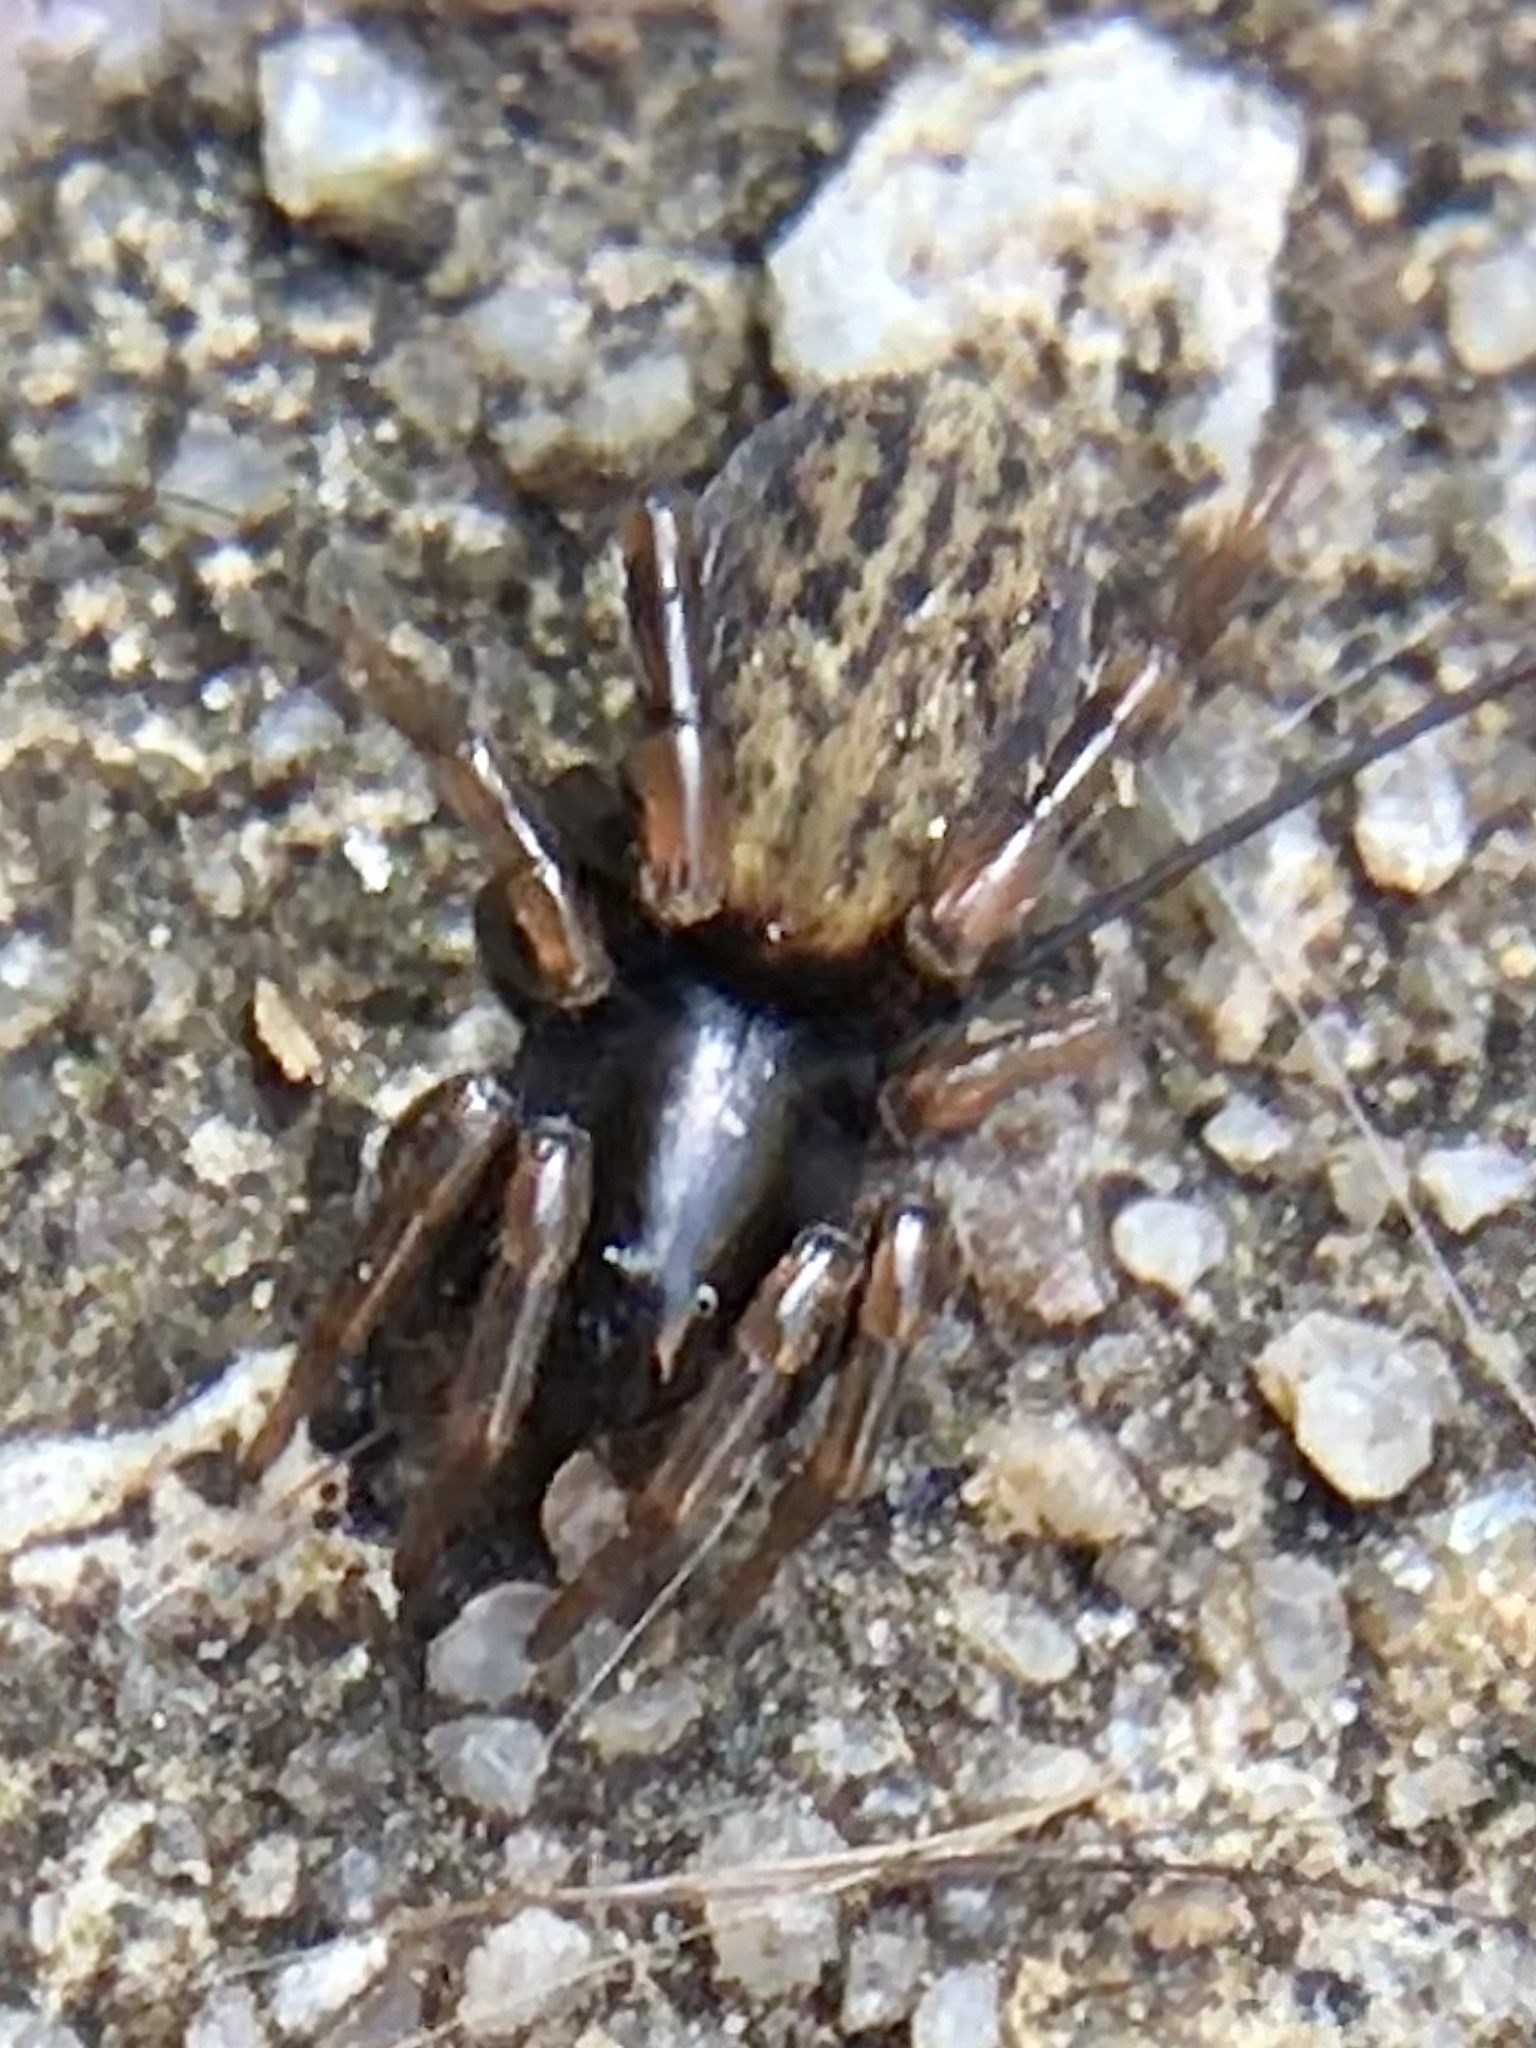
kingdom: Animalia
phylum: Arthropoda
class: Arachnida
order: Araneae
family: Lycosidae
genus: Allocosa
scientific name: Allocosa funerea
